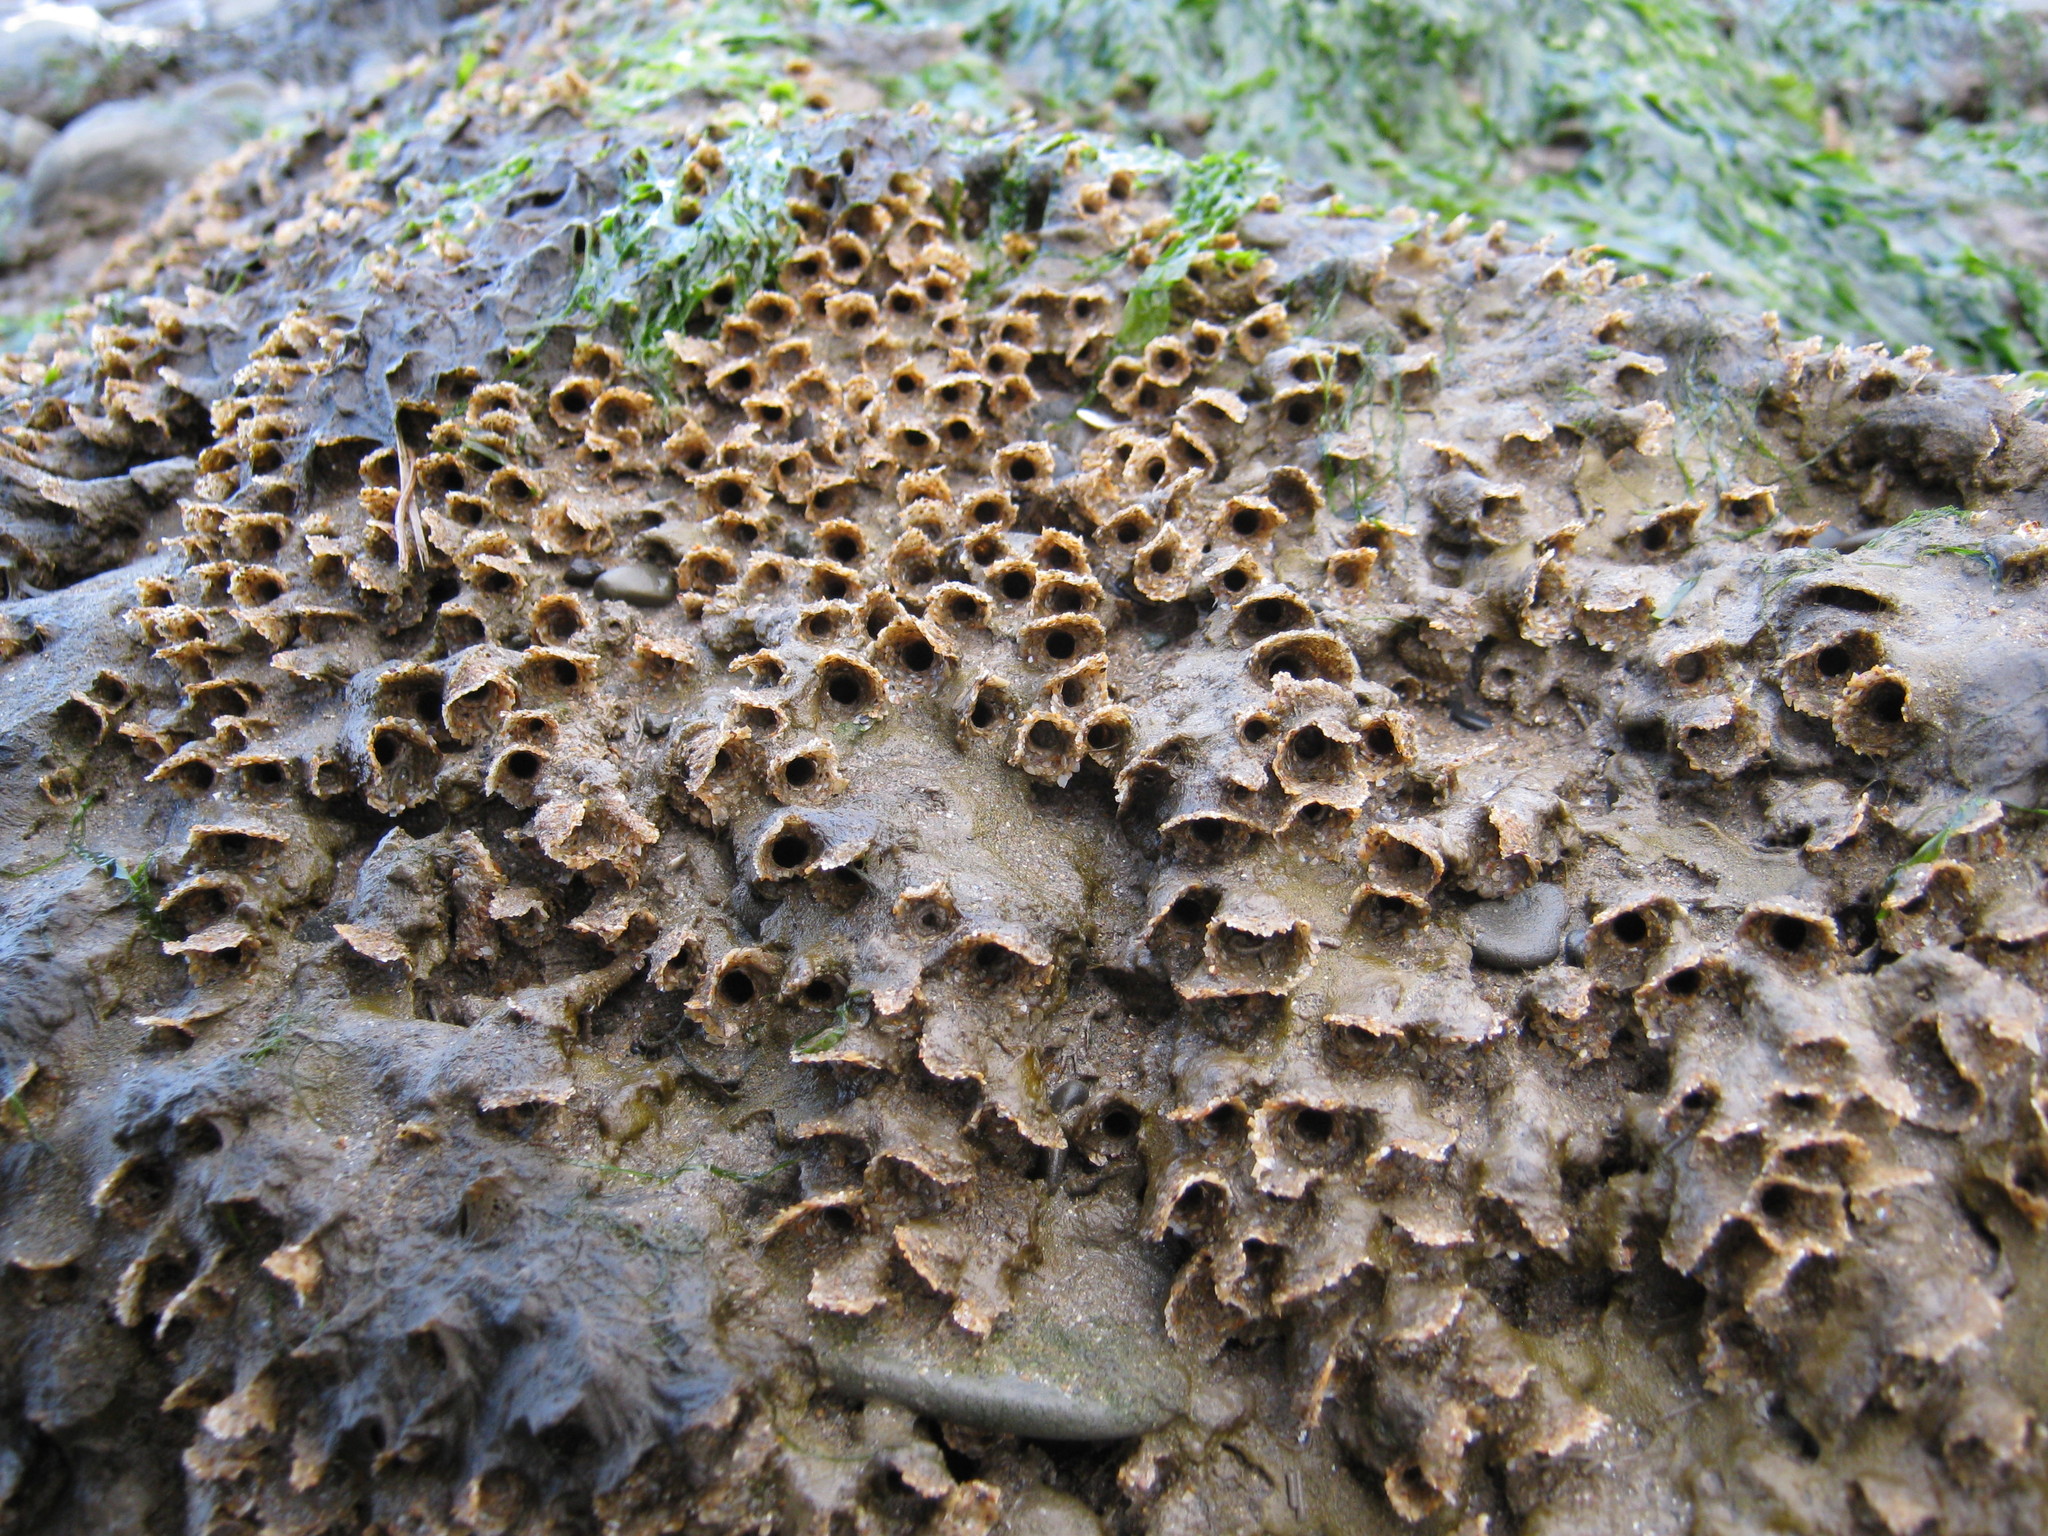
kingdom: Animalia
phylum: Annelida
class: Polychaeta
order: Sabellida
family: Sabellariidae
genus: Sabellaria
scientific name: Sabellaria alveolata
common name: Honeycomb worm
